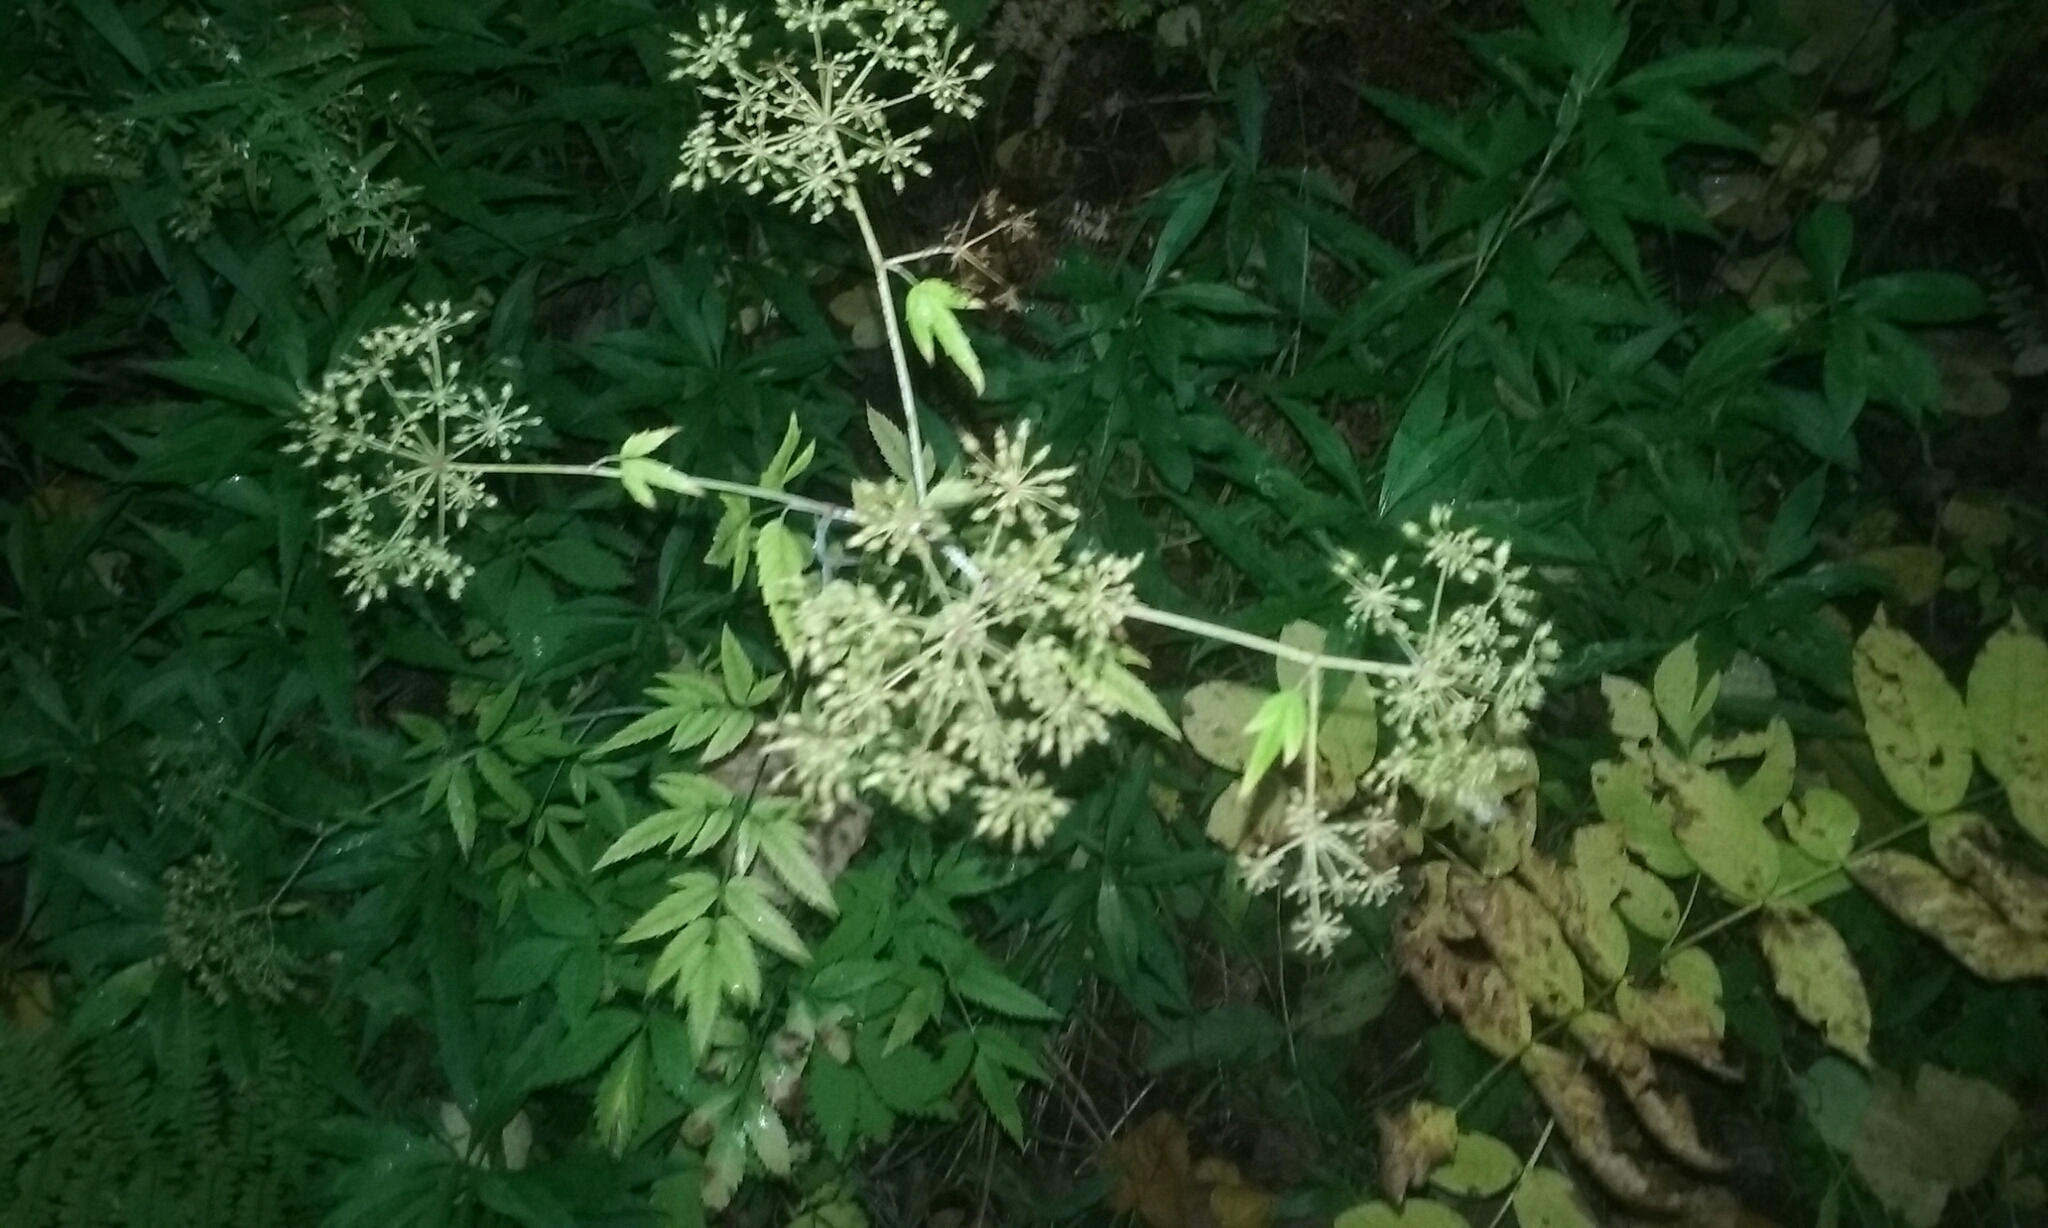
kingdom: Plantae
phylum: Tracheophyta
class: Magnoliopsida
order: Apiales
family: Apiaceae
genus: Cicuta
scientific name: Cicuta maculata
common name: Spotted cowbane
